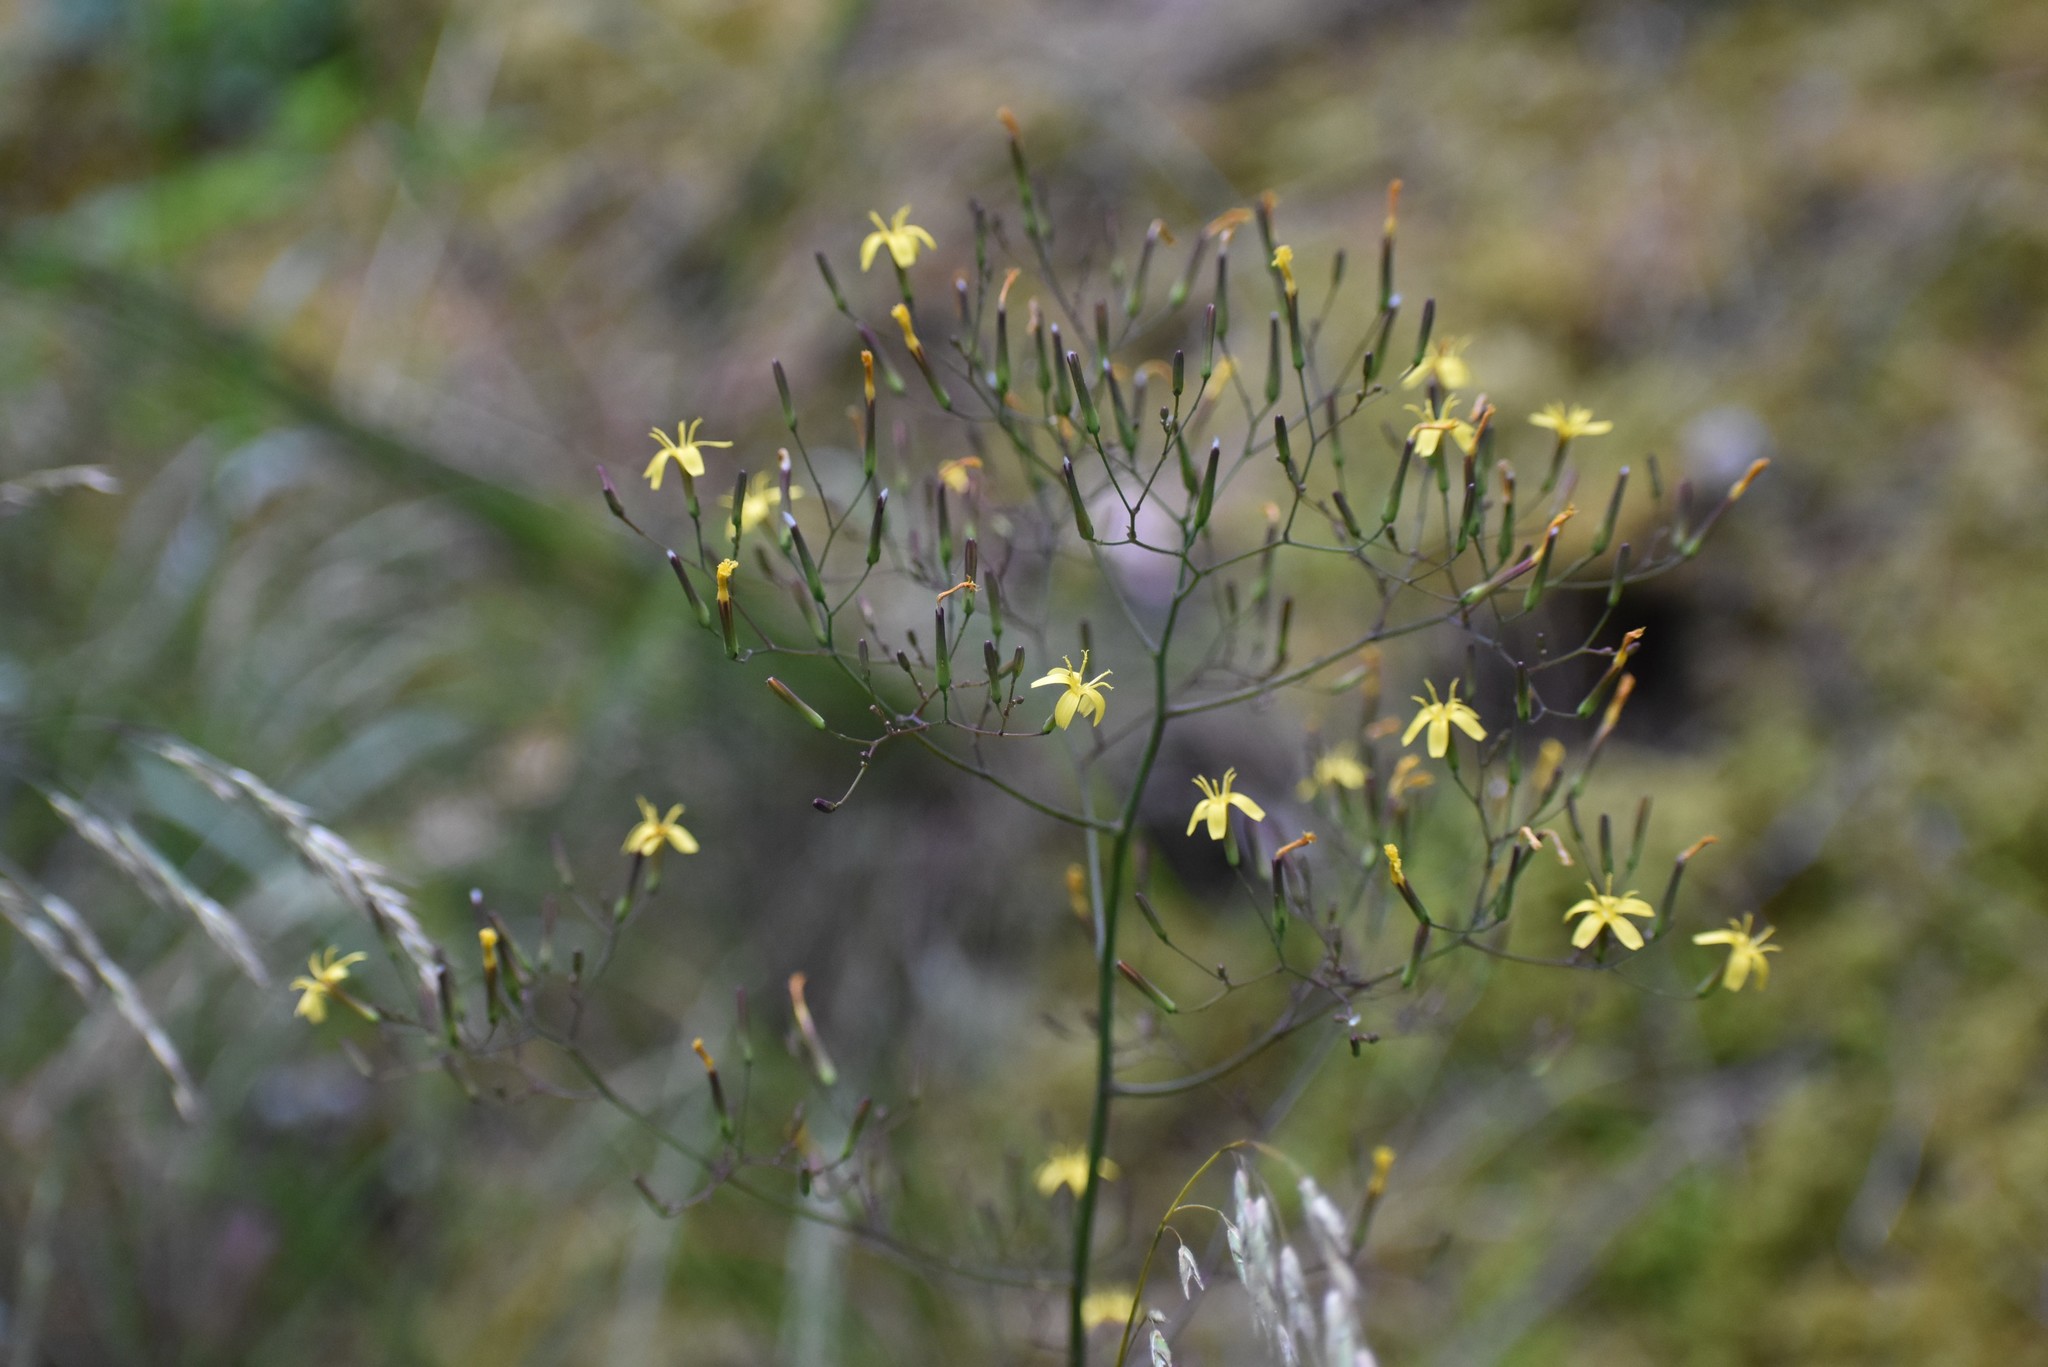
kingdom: Plantae
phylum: Tracheophyta
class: Magnoliopsida
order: Asterales
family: Asteraceae
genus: Mycelis
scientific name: Mycelis muralis
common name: Wall lettuce
